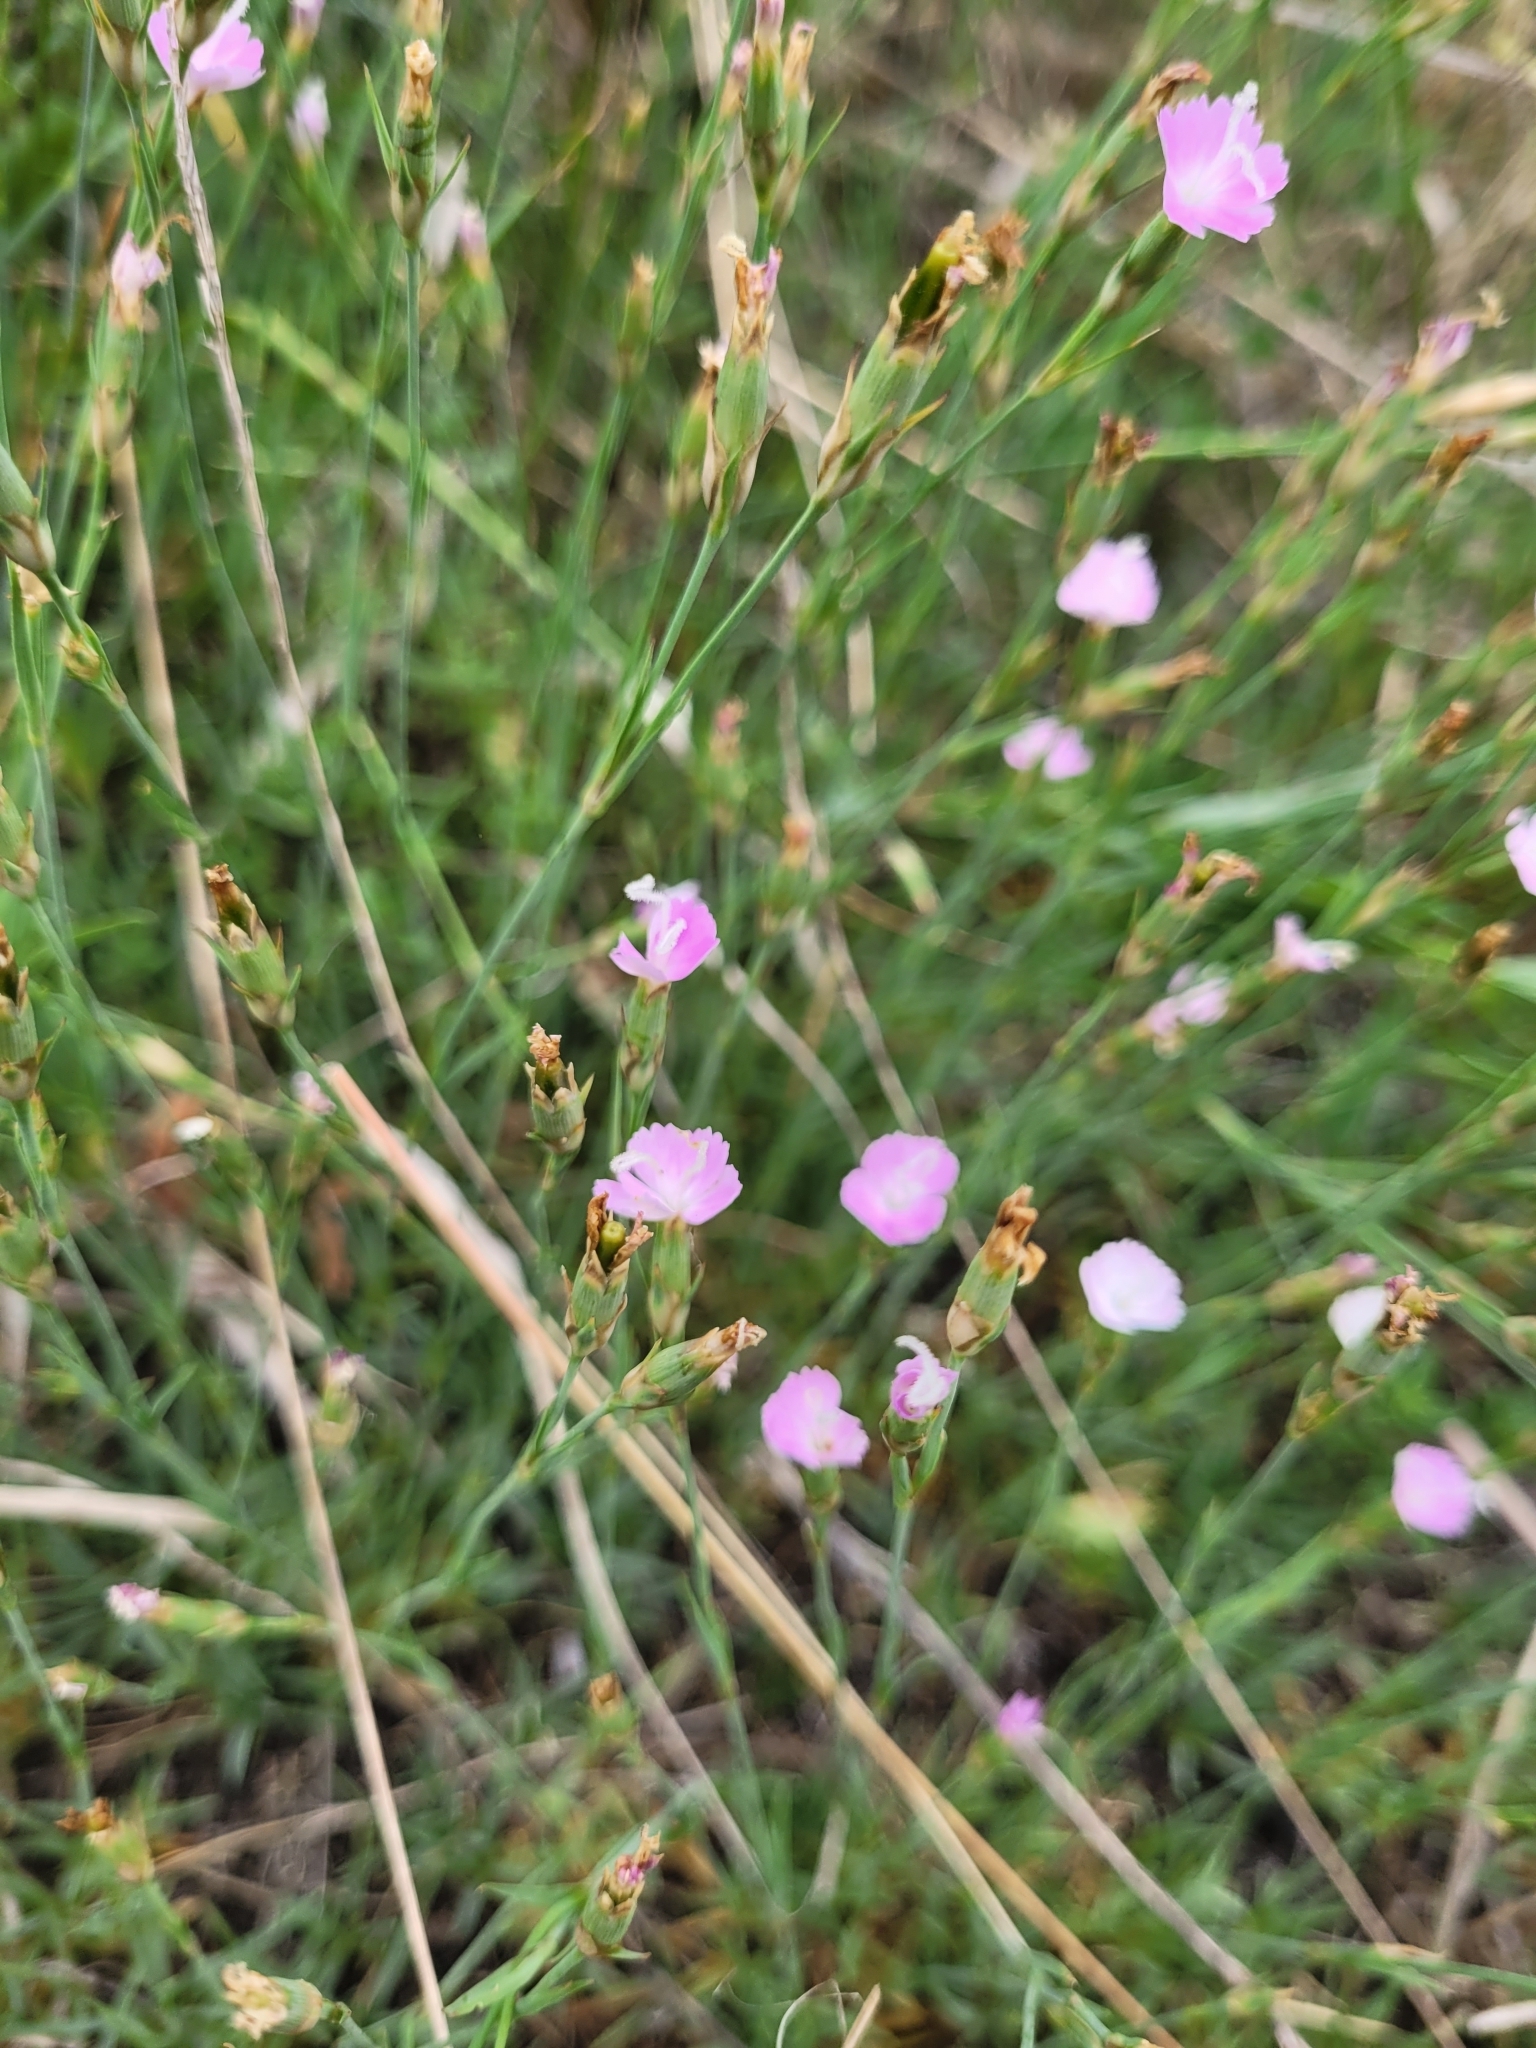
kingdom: Plantae
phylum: Tracheophyta
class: Magnoliopsida
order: Caryophyllales
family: Caryophyllaceae
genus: Dianthus
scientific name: Dianthus furcatus
